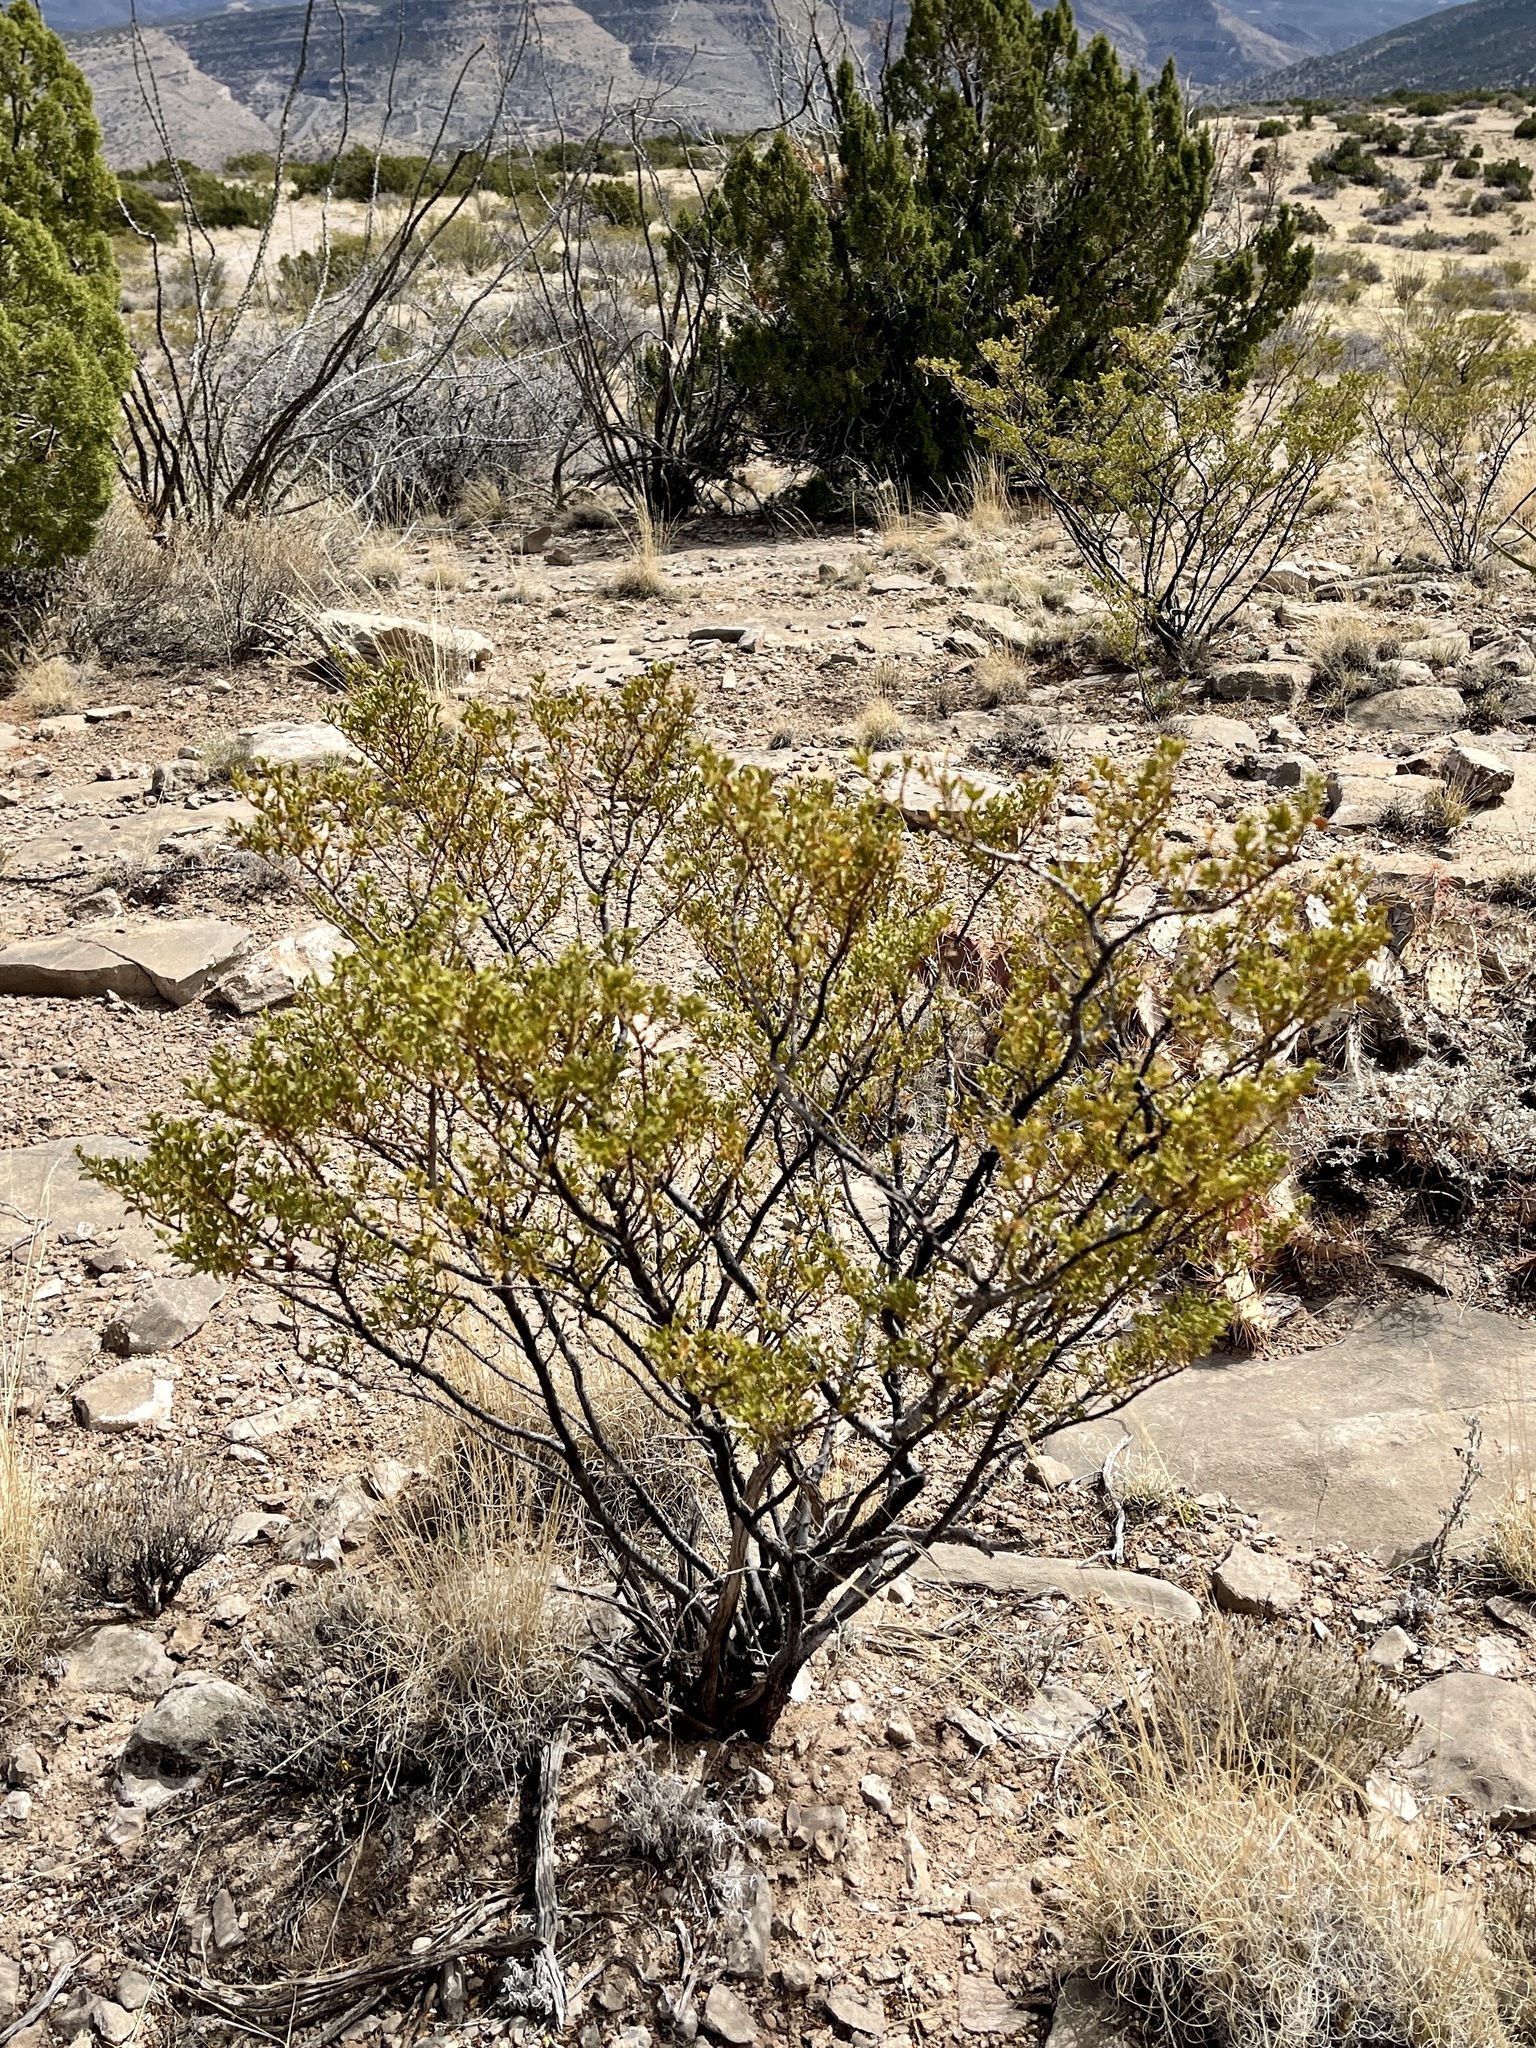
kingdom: Plantae
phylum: Tracheophyta
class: Magnoliopsida
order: Zygophyllales
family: Zygophyllaceae
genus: Larrea
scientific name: Larrea tridentata
